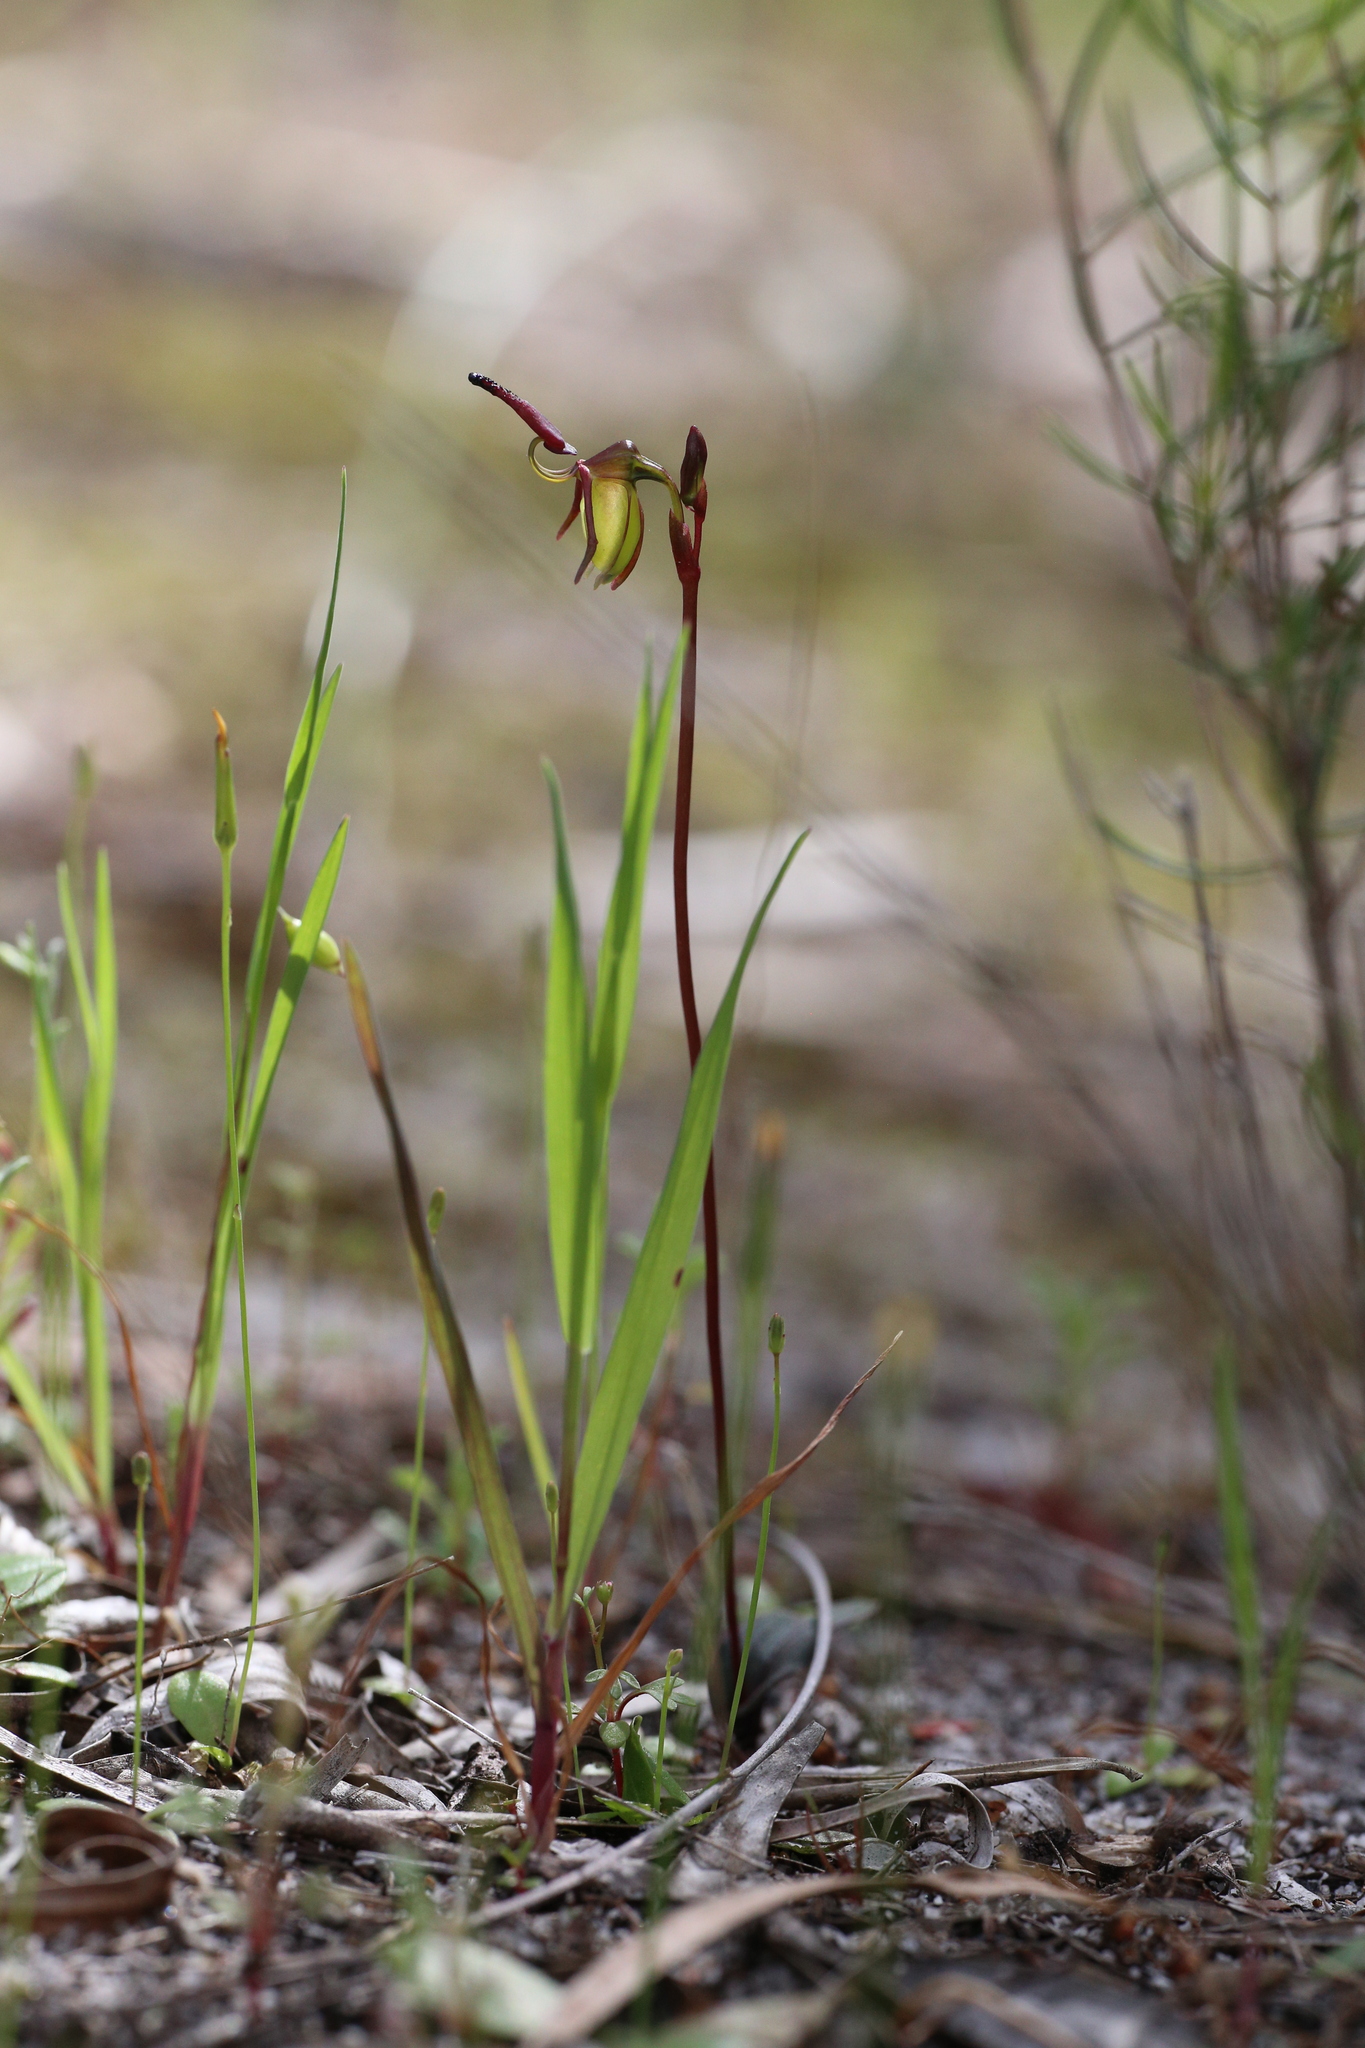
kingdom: Plantae
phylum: Tracheophyta
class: Liliopsida
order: Asparagales
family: Orchidaceae
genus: Caleana
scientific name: Caleana hortiorum
